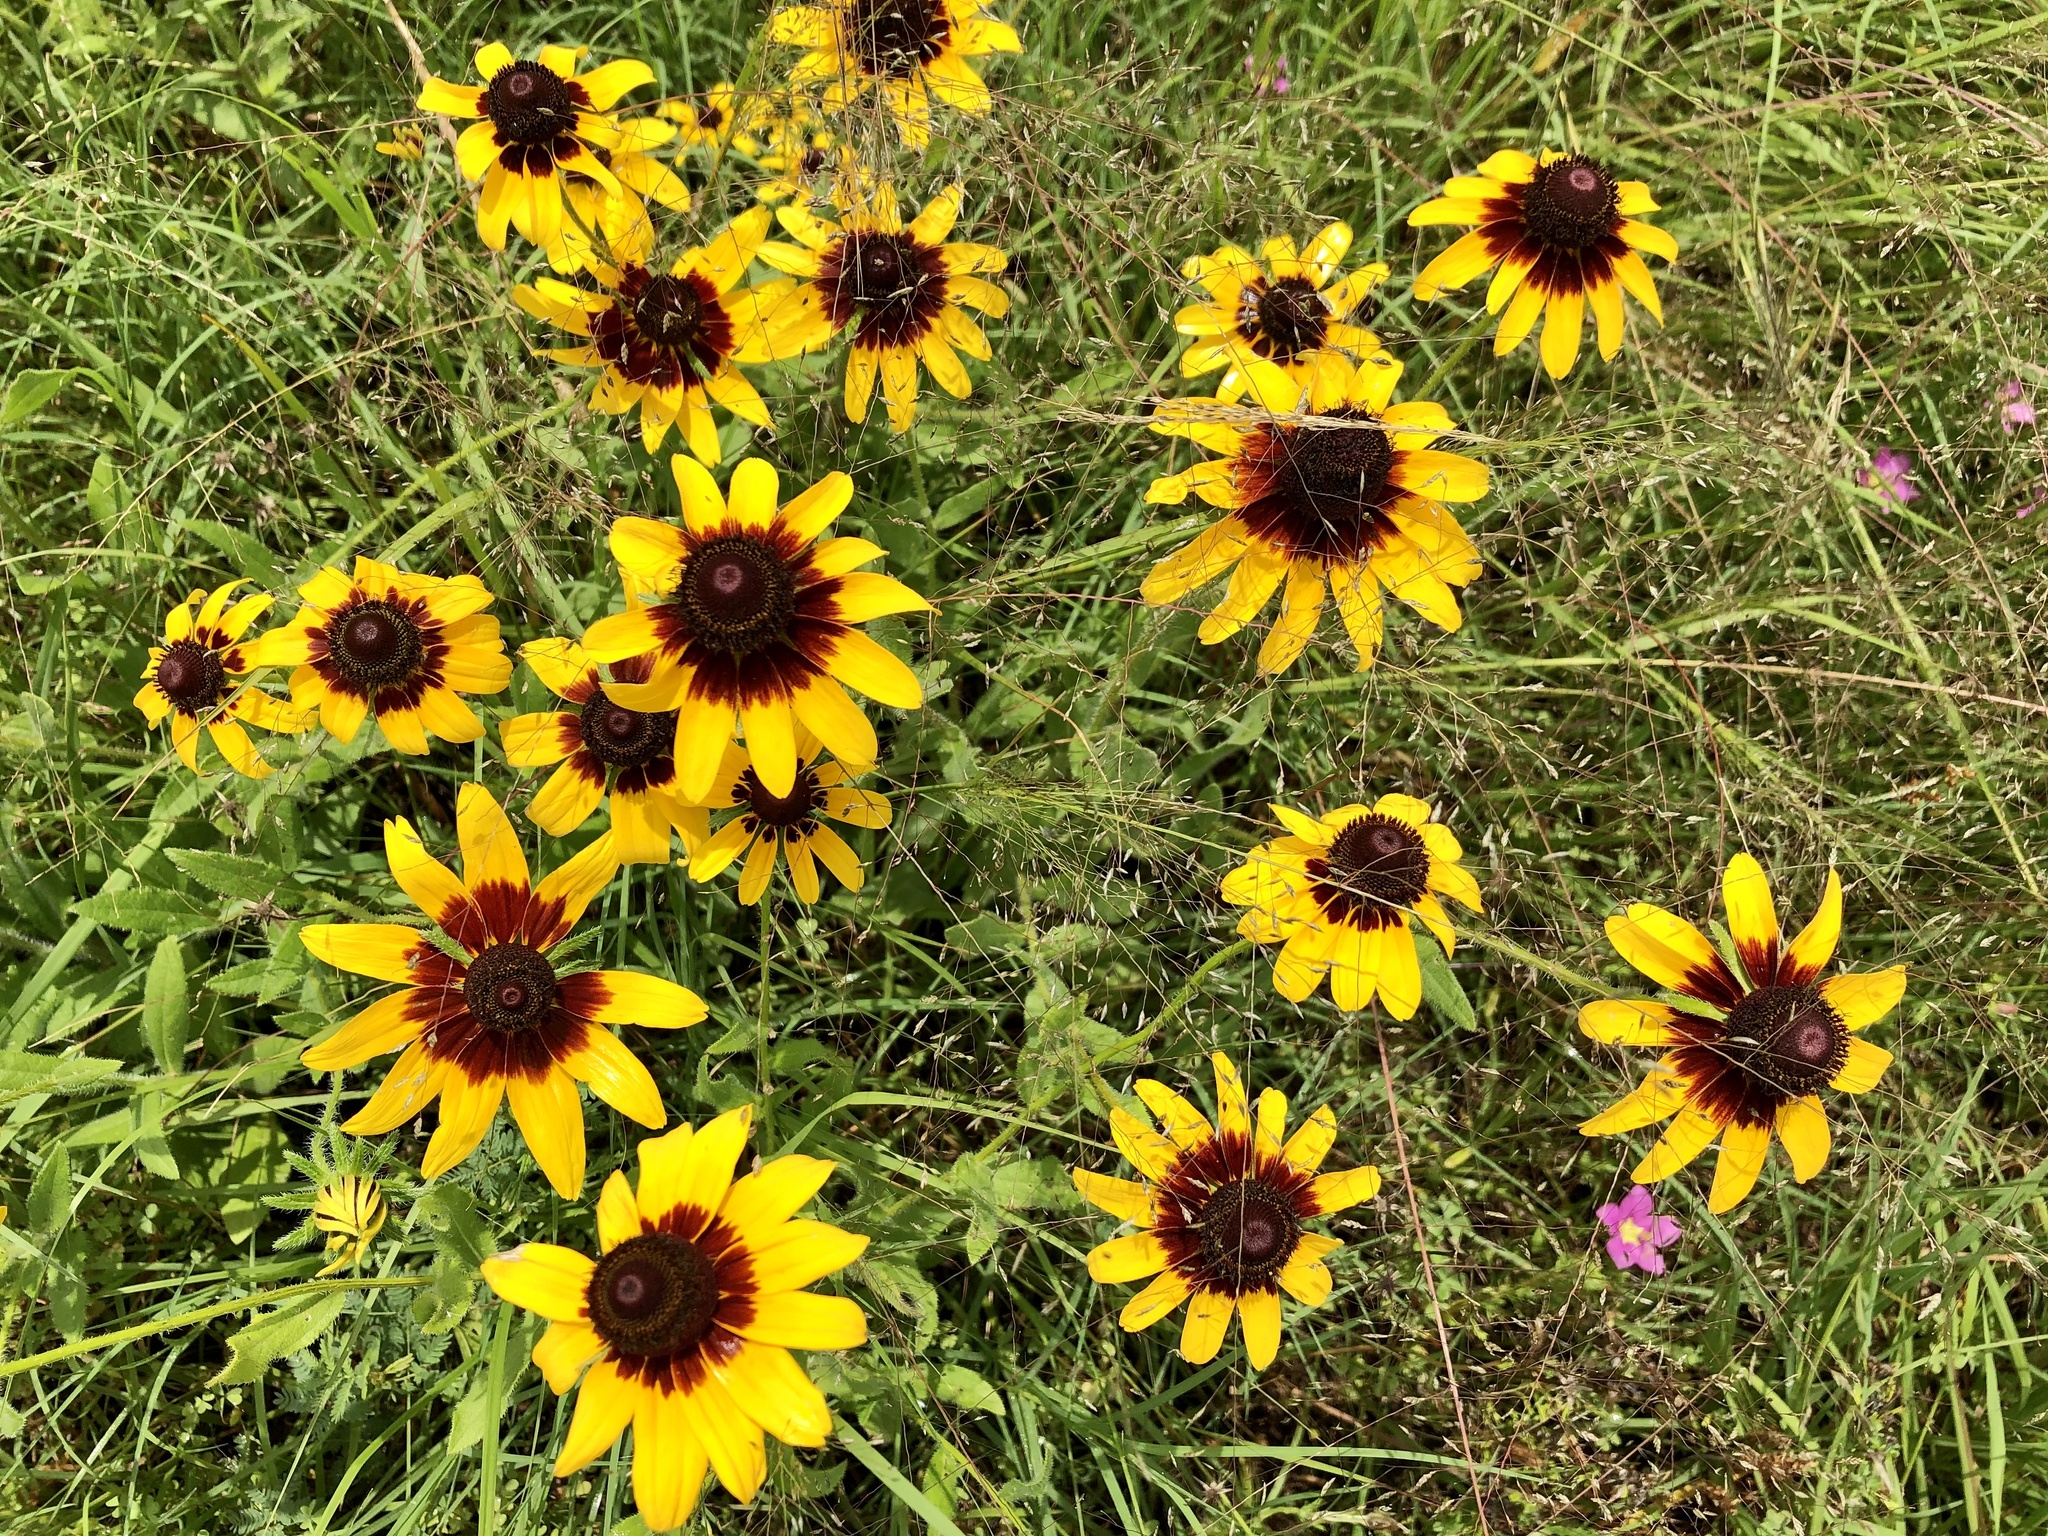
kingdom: Plantae
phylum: Tracheophyta
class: Magnoliopsida
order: Asterales
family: Asteraceae
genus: Rudbeckia
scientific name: Rudbeckia hirta
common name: Black-eyed-susan
